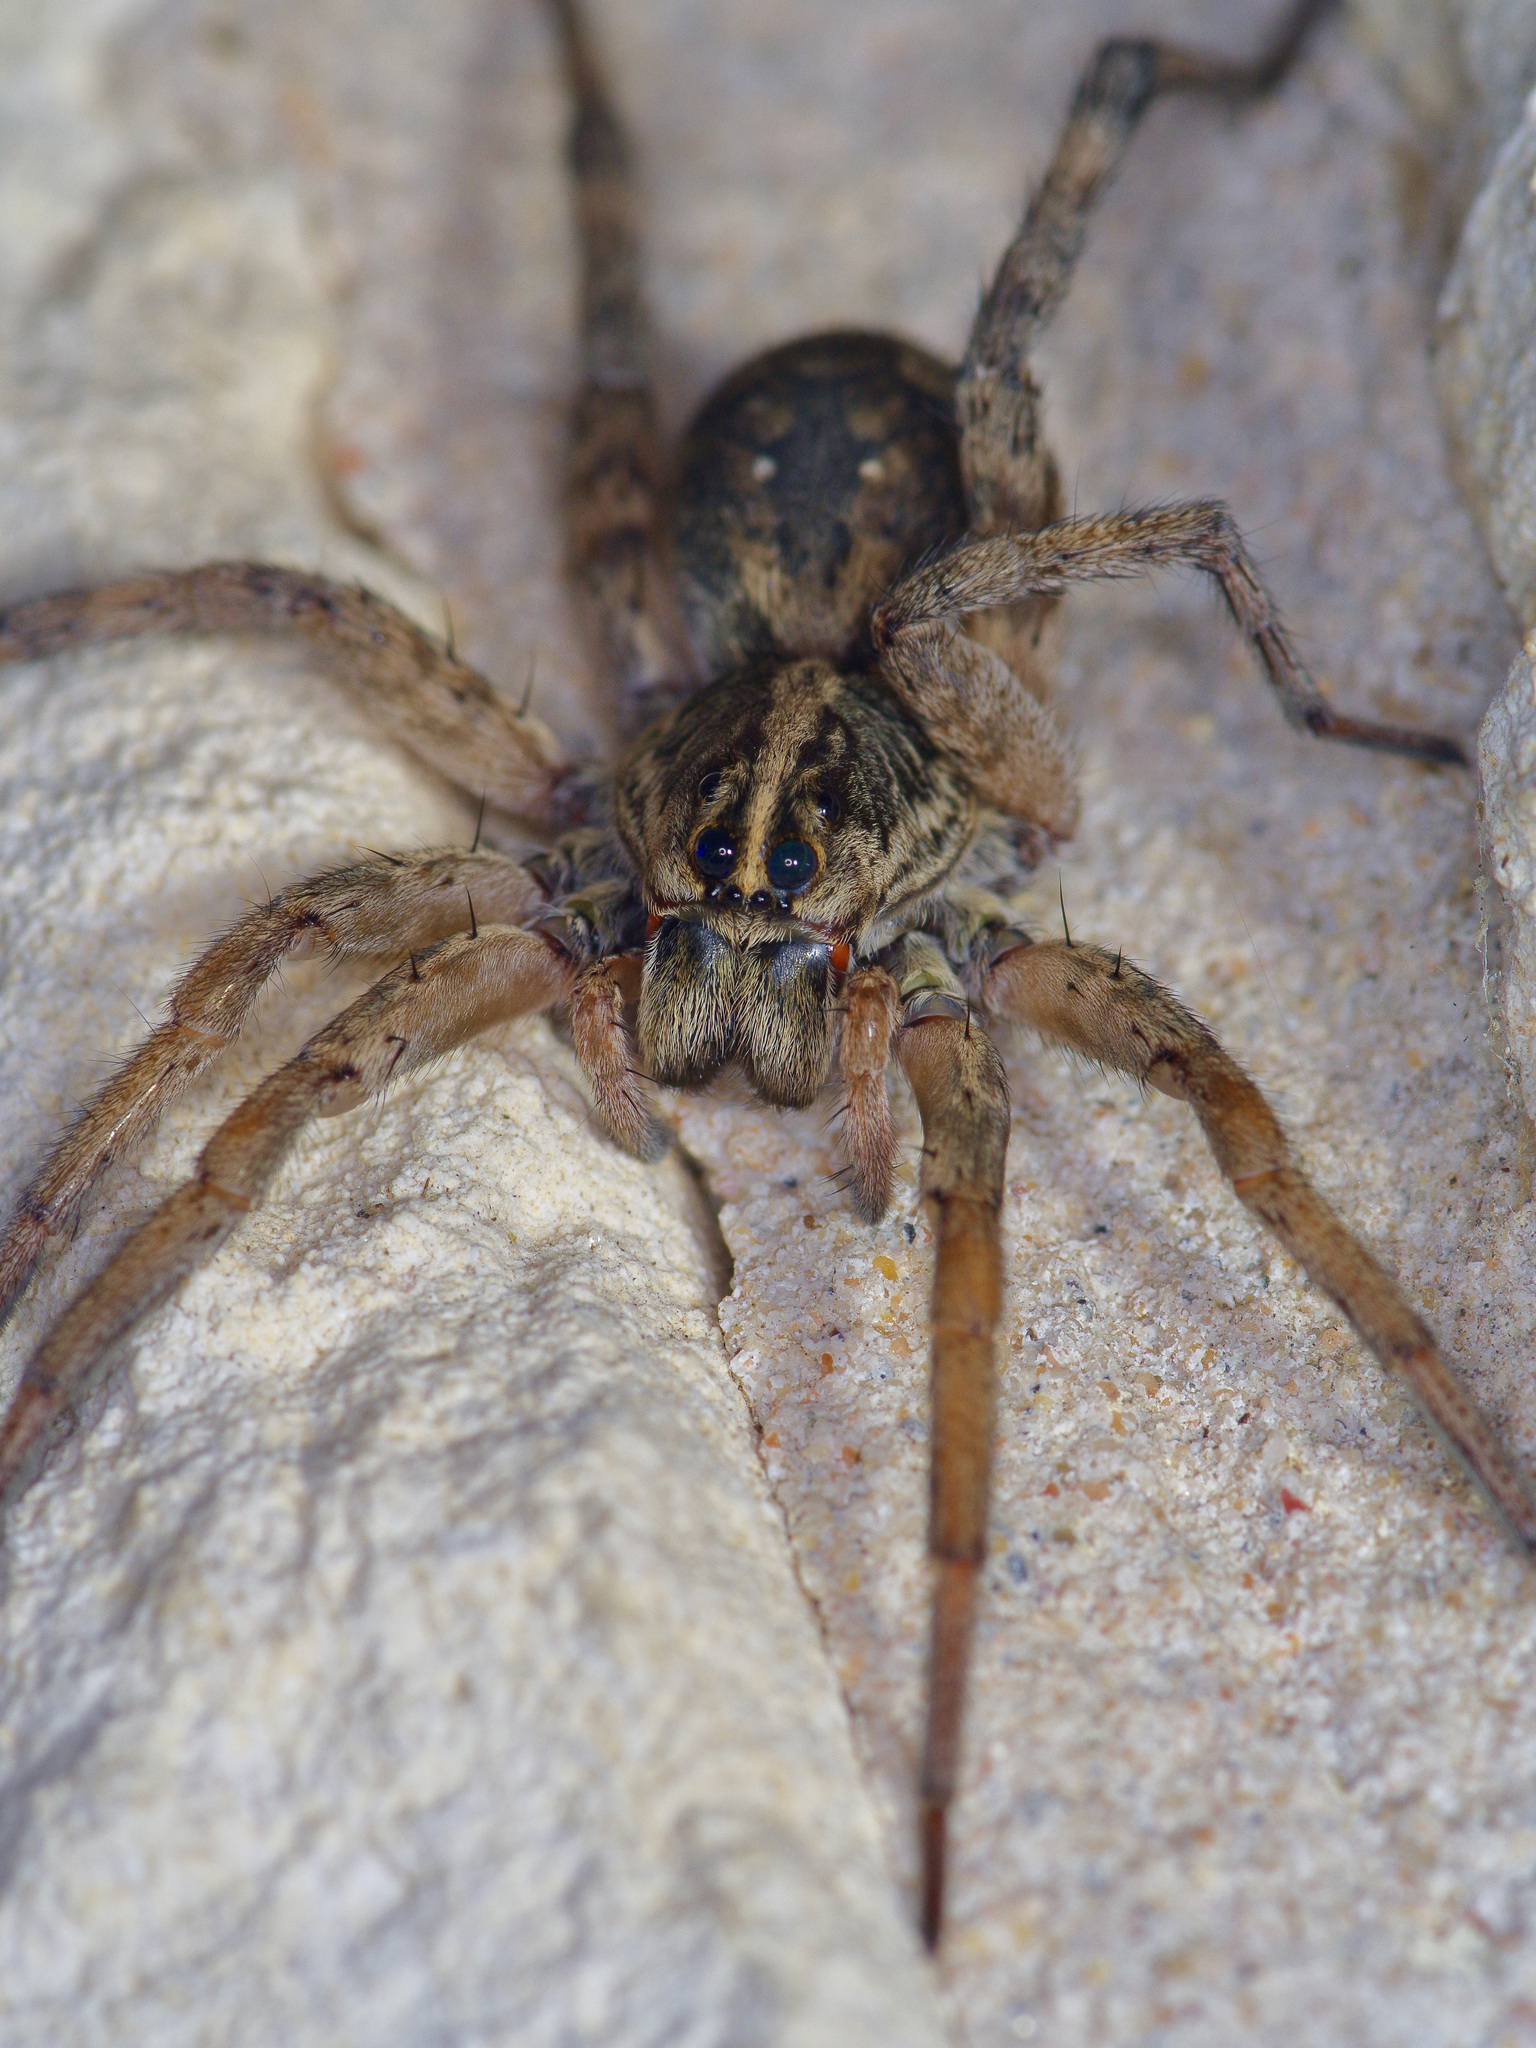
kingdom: Animalia
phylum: Arthropoda
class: Arachnida
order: Araneae
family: Lycosidae
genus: Hogna
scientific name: Hogna antelucana
